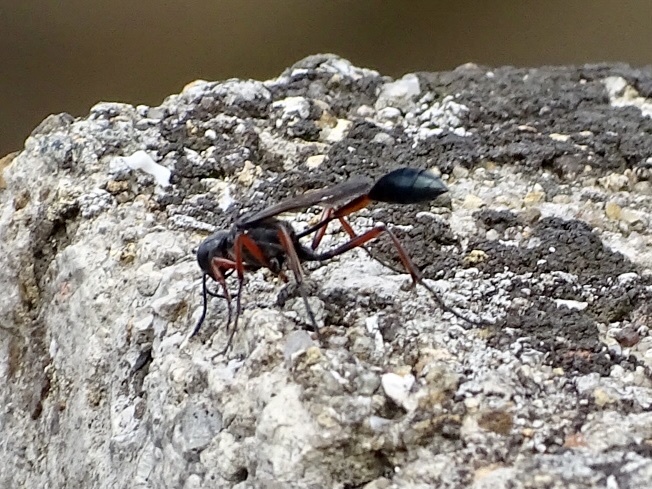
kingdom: Animalia
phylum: Arthropoda
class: Insecta
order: Hymenoptera
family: Sphecidae
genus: Ammophila
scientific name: Ammophila clavus
